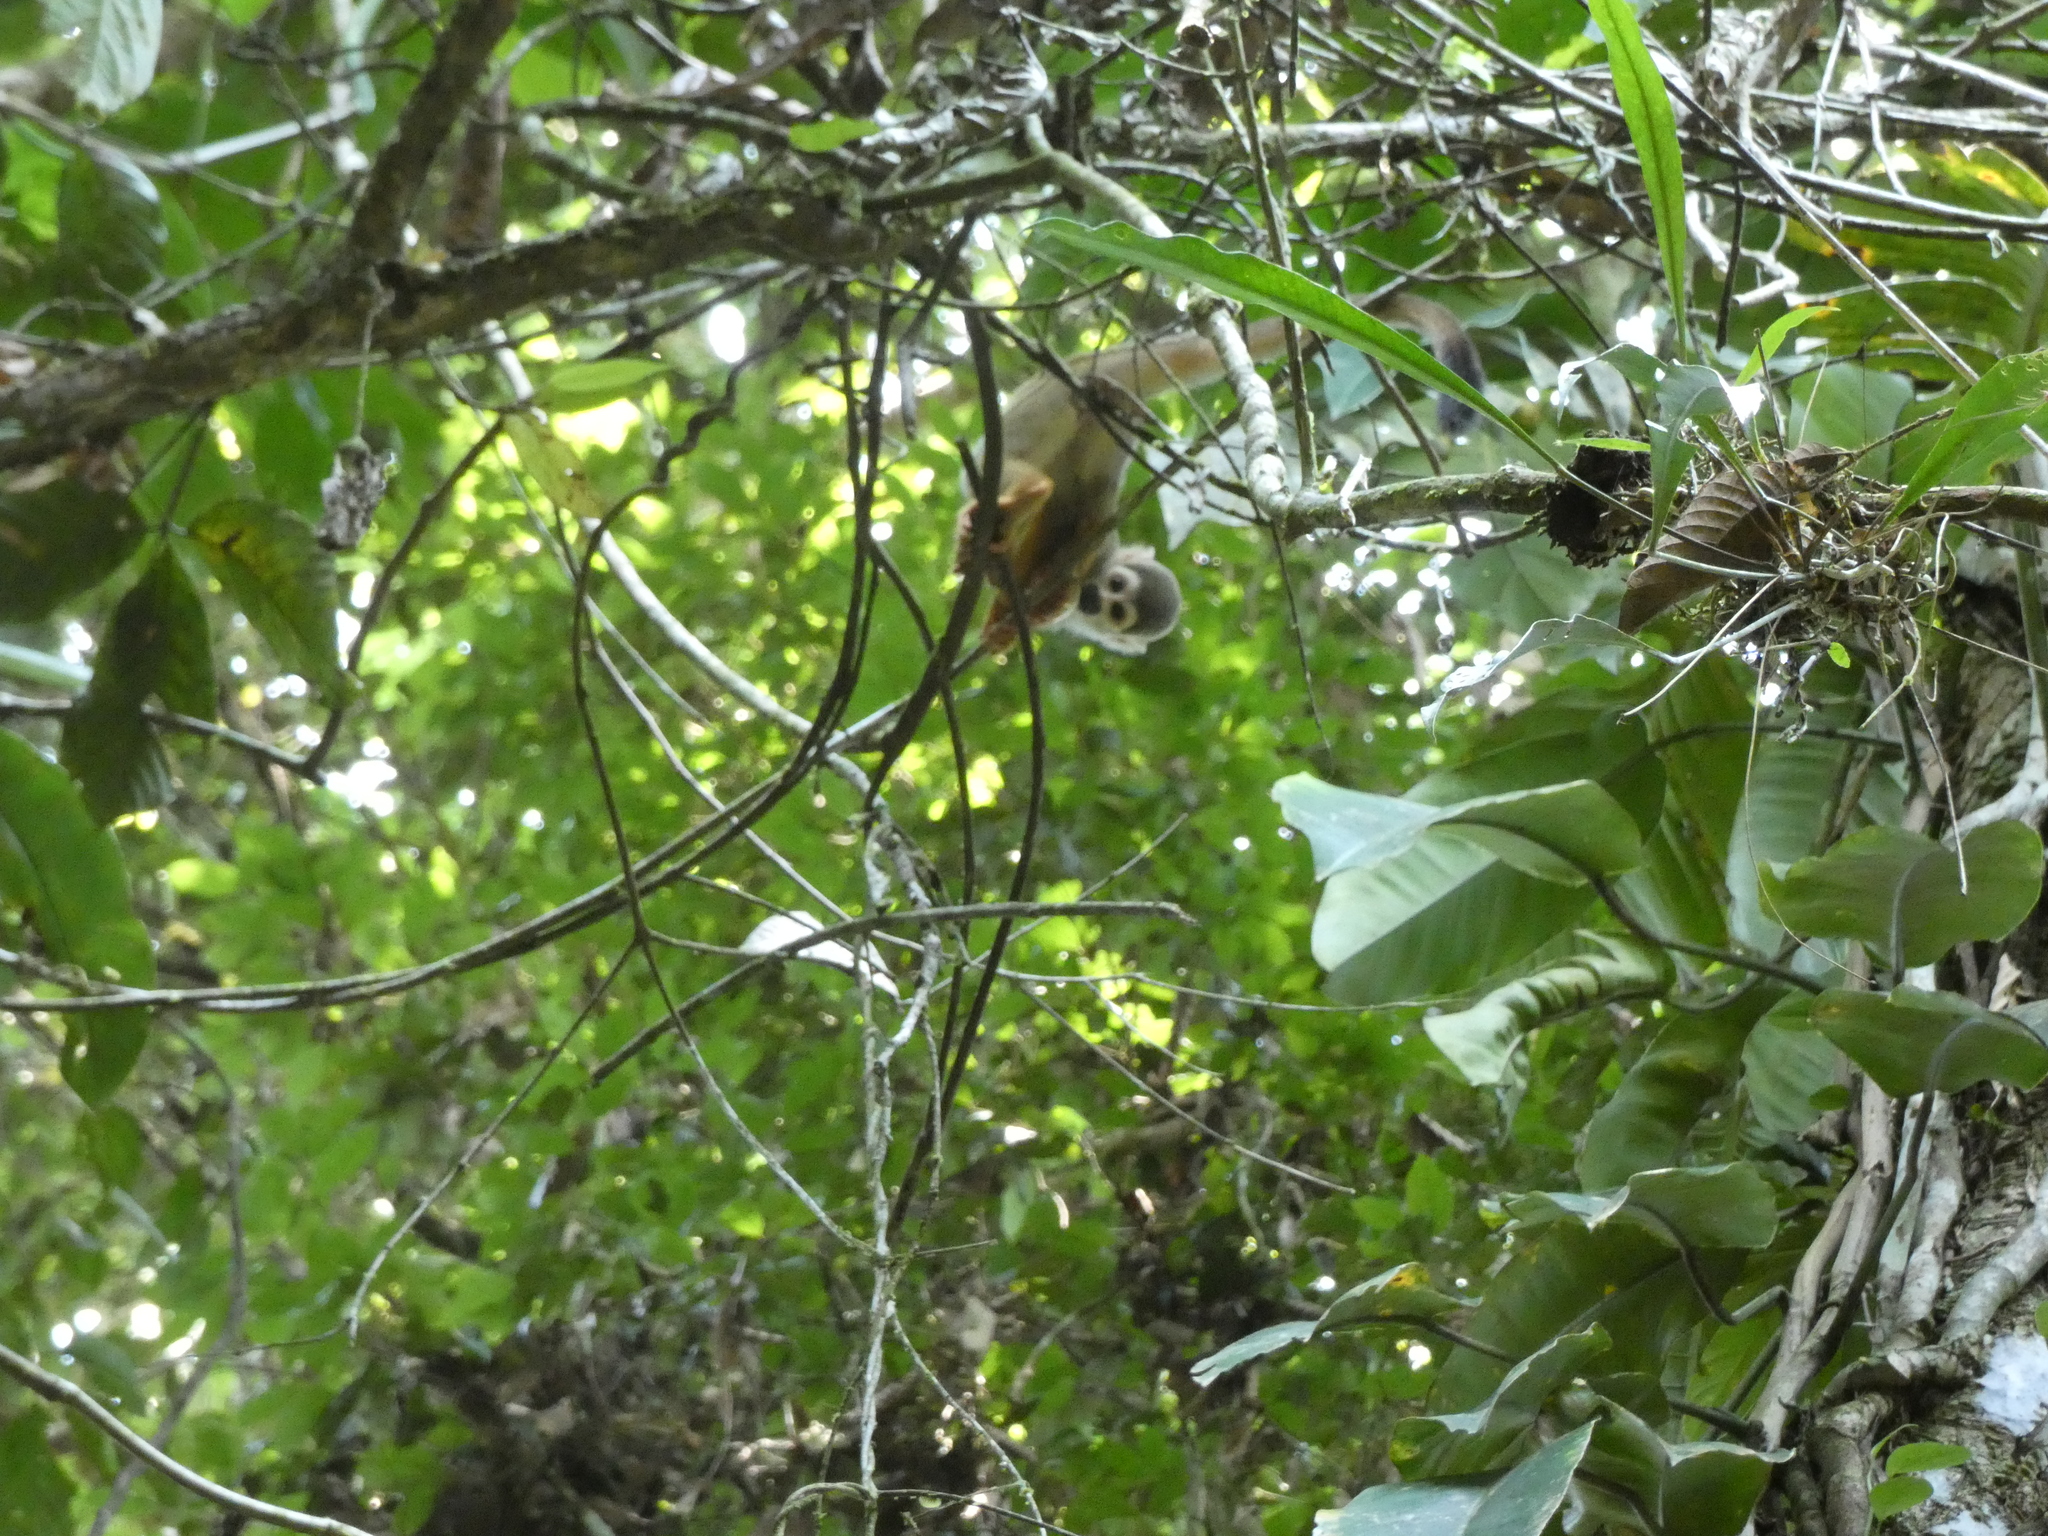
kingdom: Animalia
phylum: Chordata
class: Mammalia
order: Primates
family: Cebidae
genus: Saimiri
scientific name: Saimiri cassiquiarensis
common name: Humboldt’s squirrel monkey
